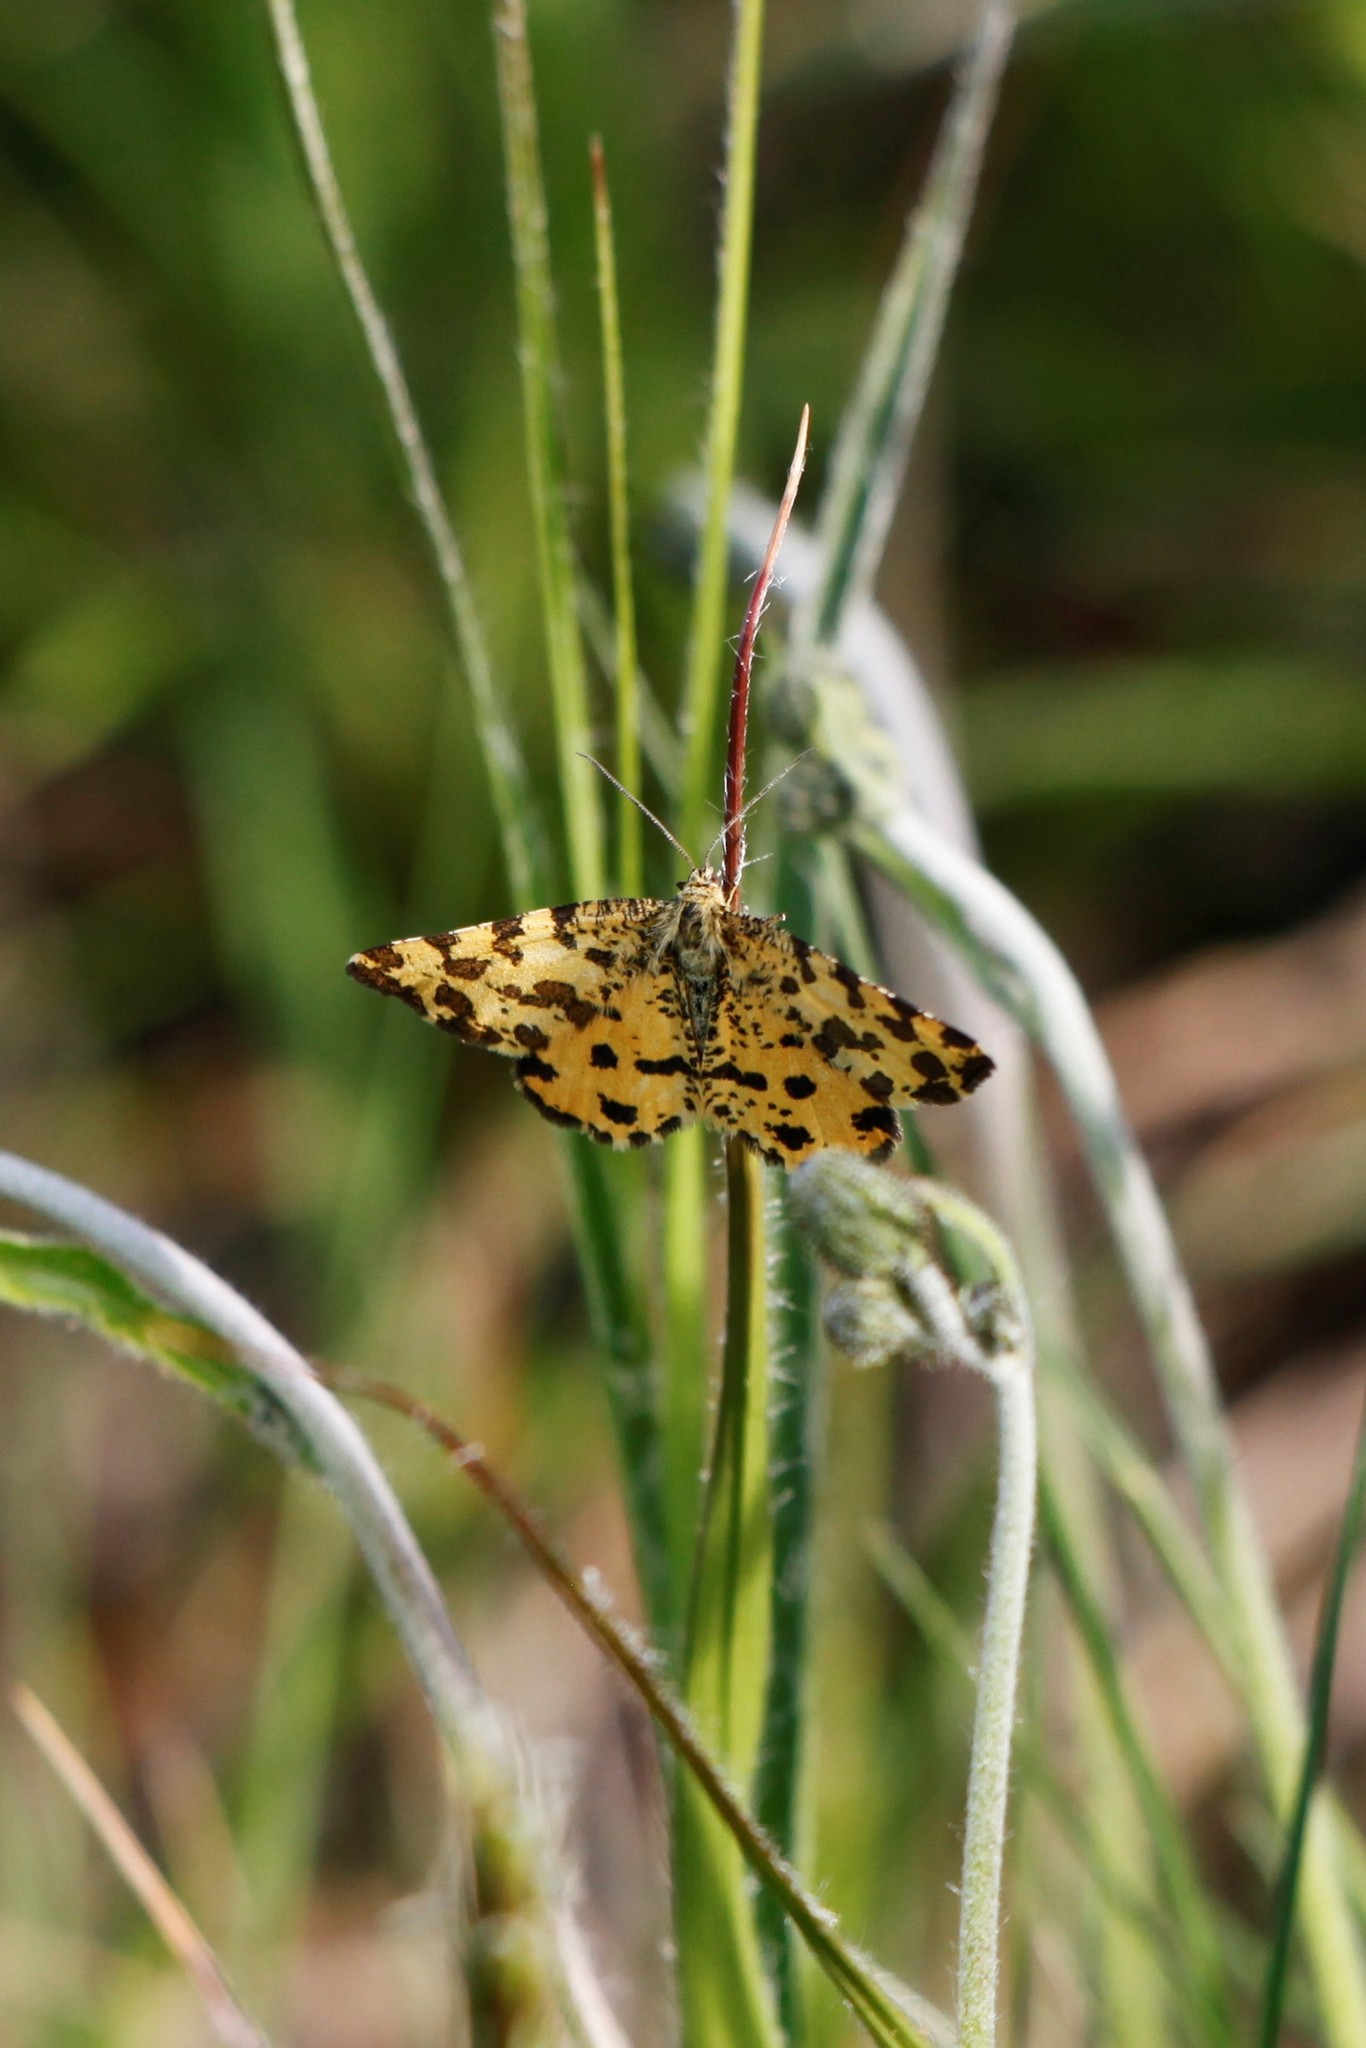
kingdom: Animalia
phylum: Arthropoda
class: Insecta
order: Lepidoptera
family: Geometridae
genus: Pseudopanthera
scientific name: Pseudopanthera macularia
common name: Speckled yellow
